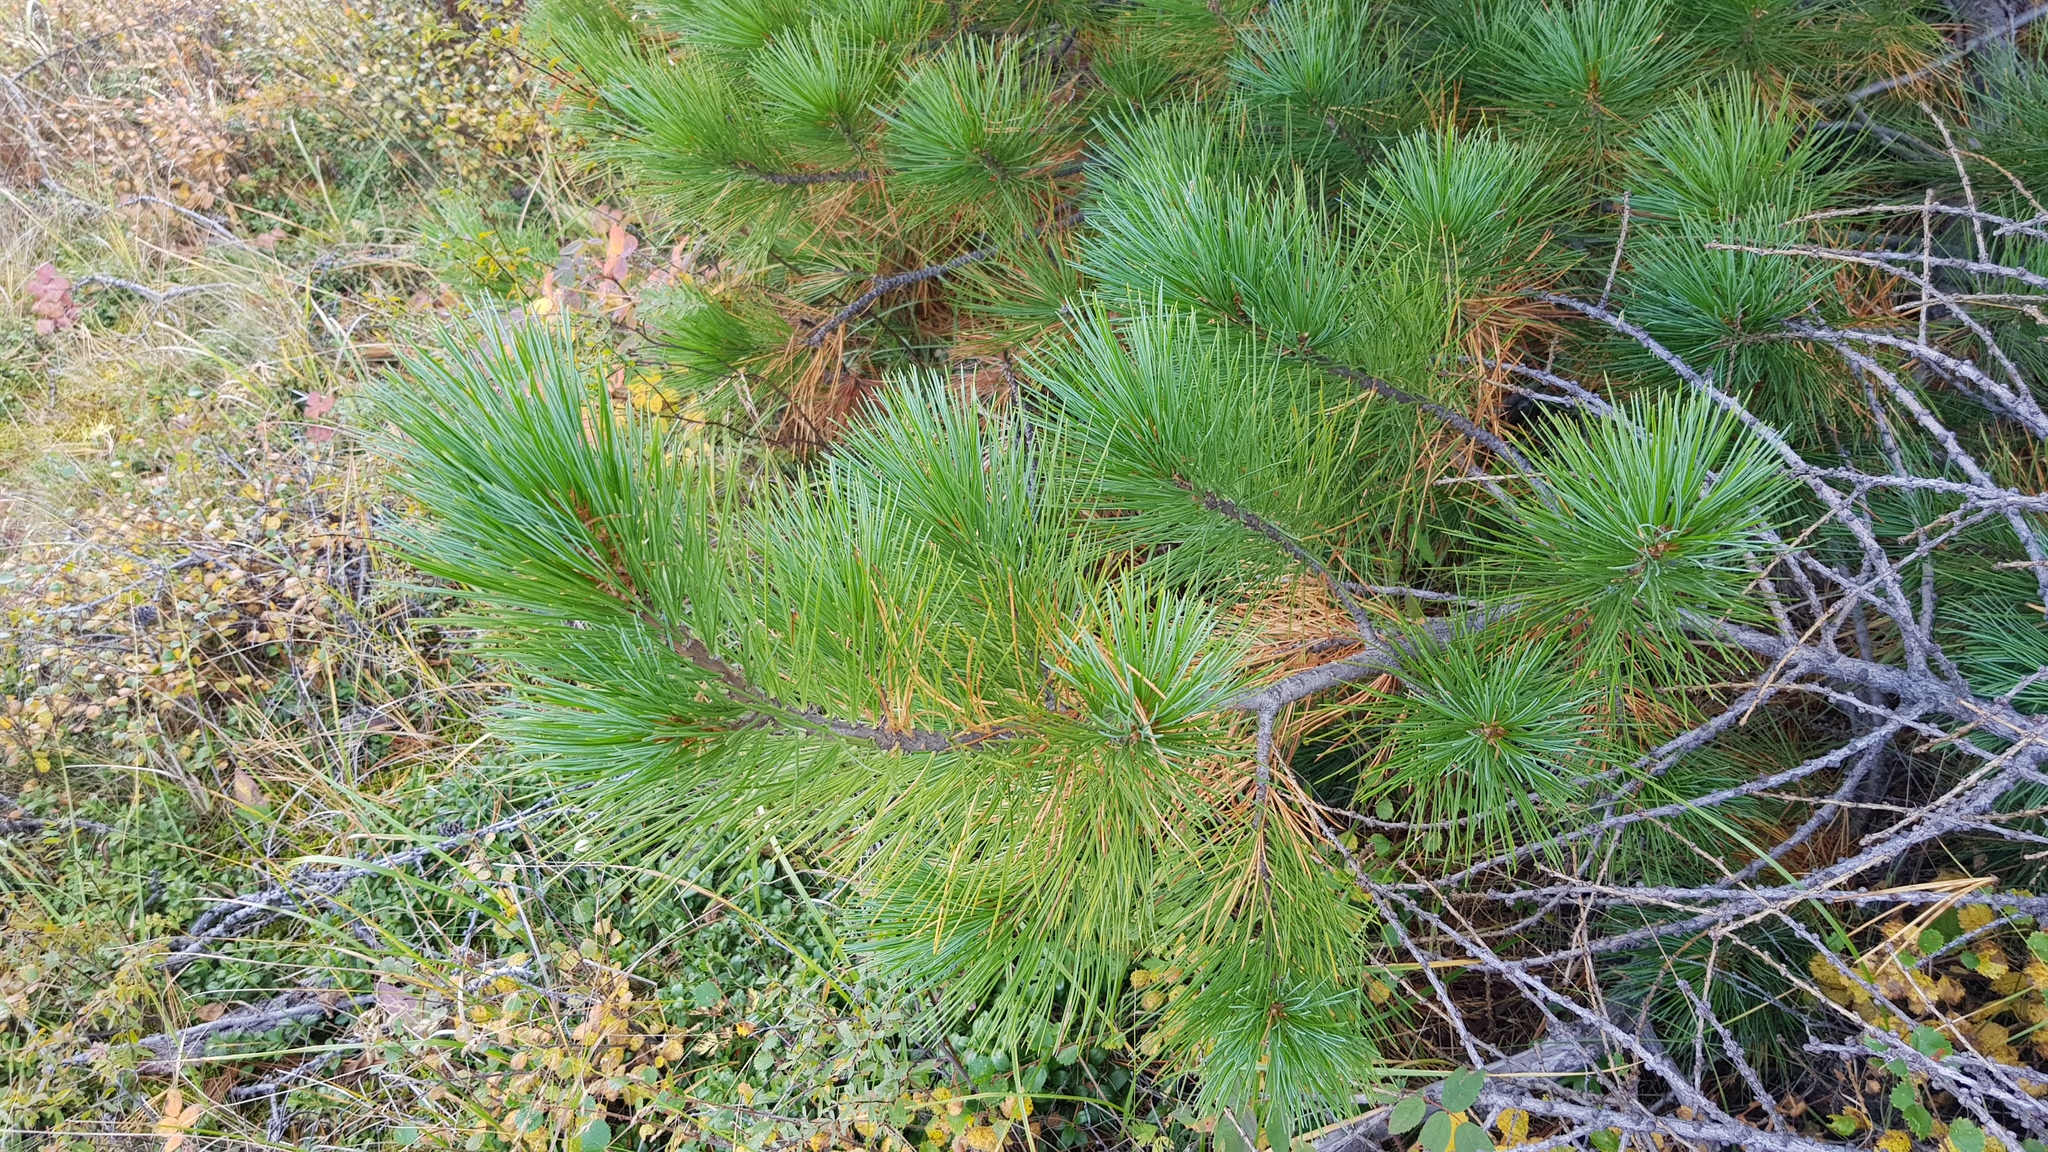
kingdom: Plantae
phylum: Tracheophyta
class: Pinopsida
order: Pinales
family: Pinaceae
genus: Pinus
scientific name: Pinus sibirica
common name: Siberian pine
